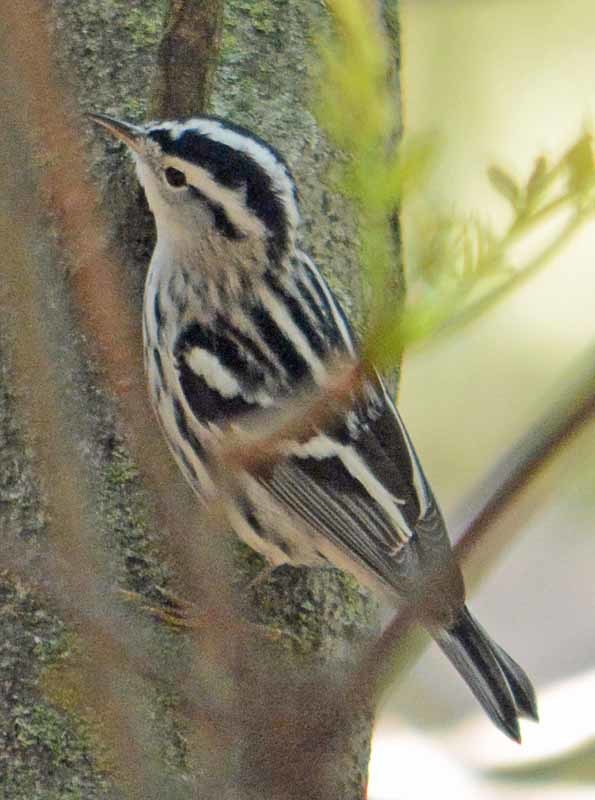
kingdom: Animalia
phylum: Chordata
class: Aves
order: Passeriformes
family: Parulidae
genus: Mniotilta
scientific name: Mniotilta varia
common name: Black-and-white warbler
